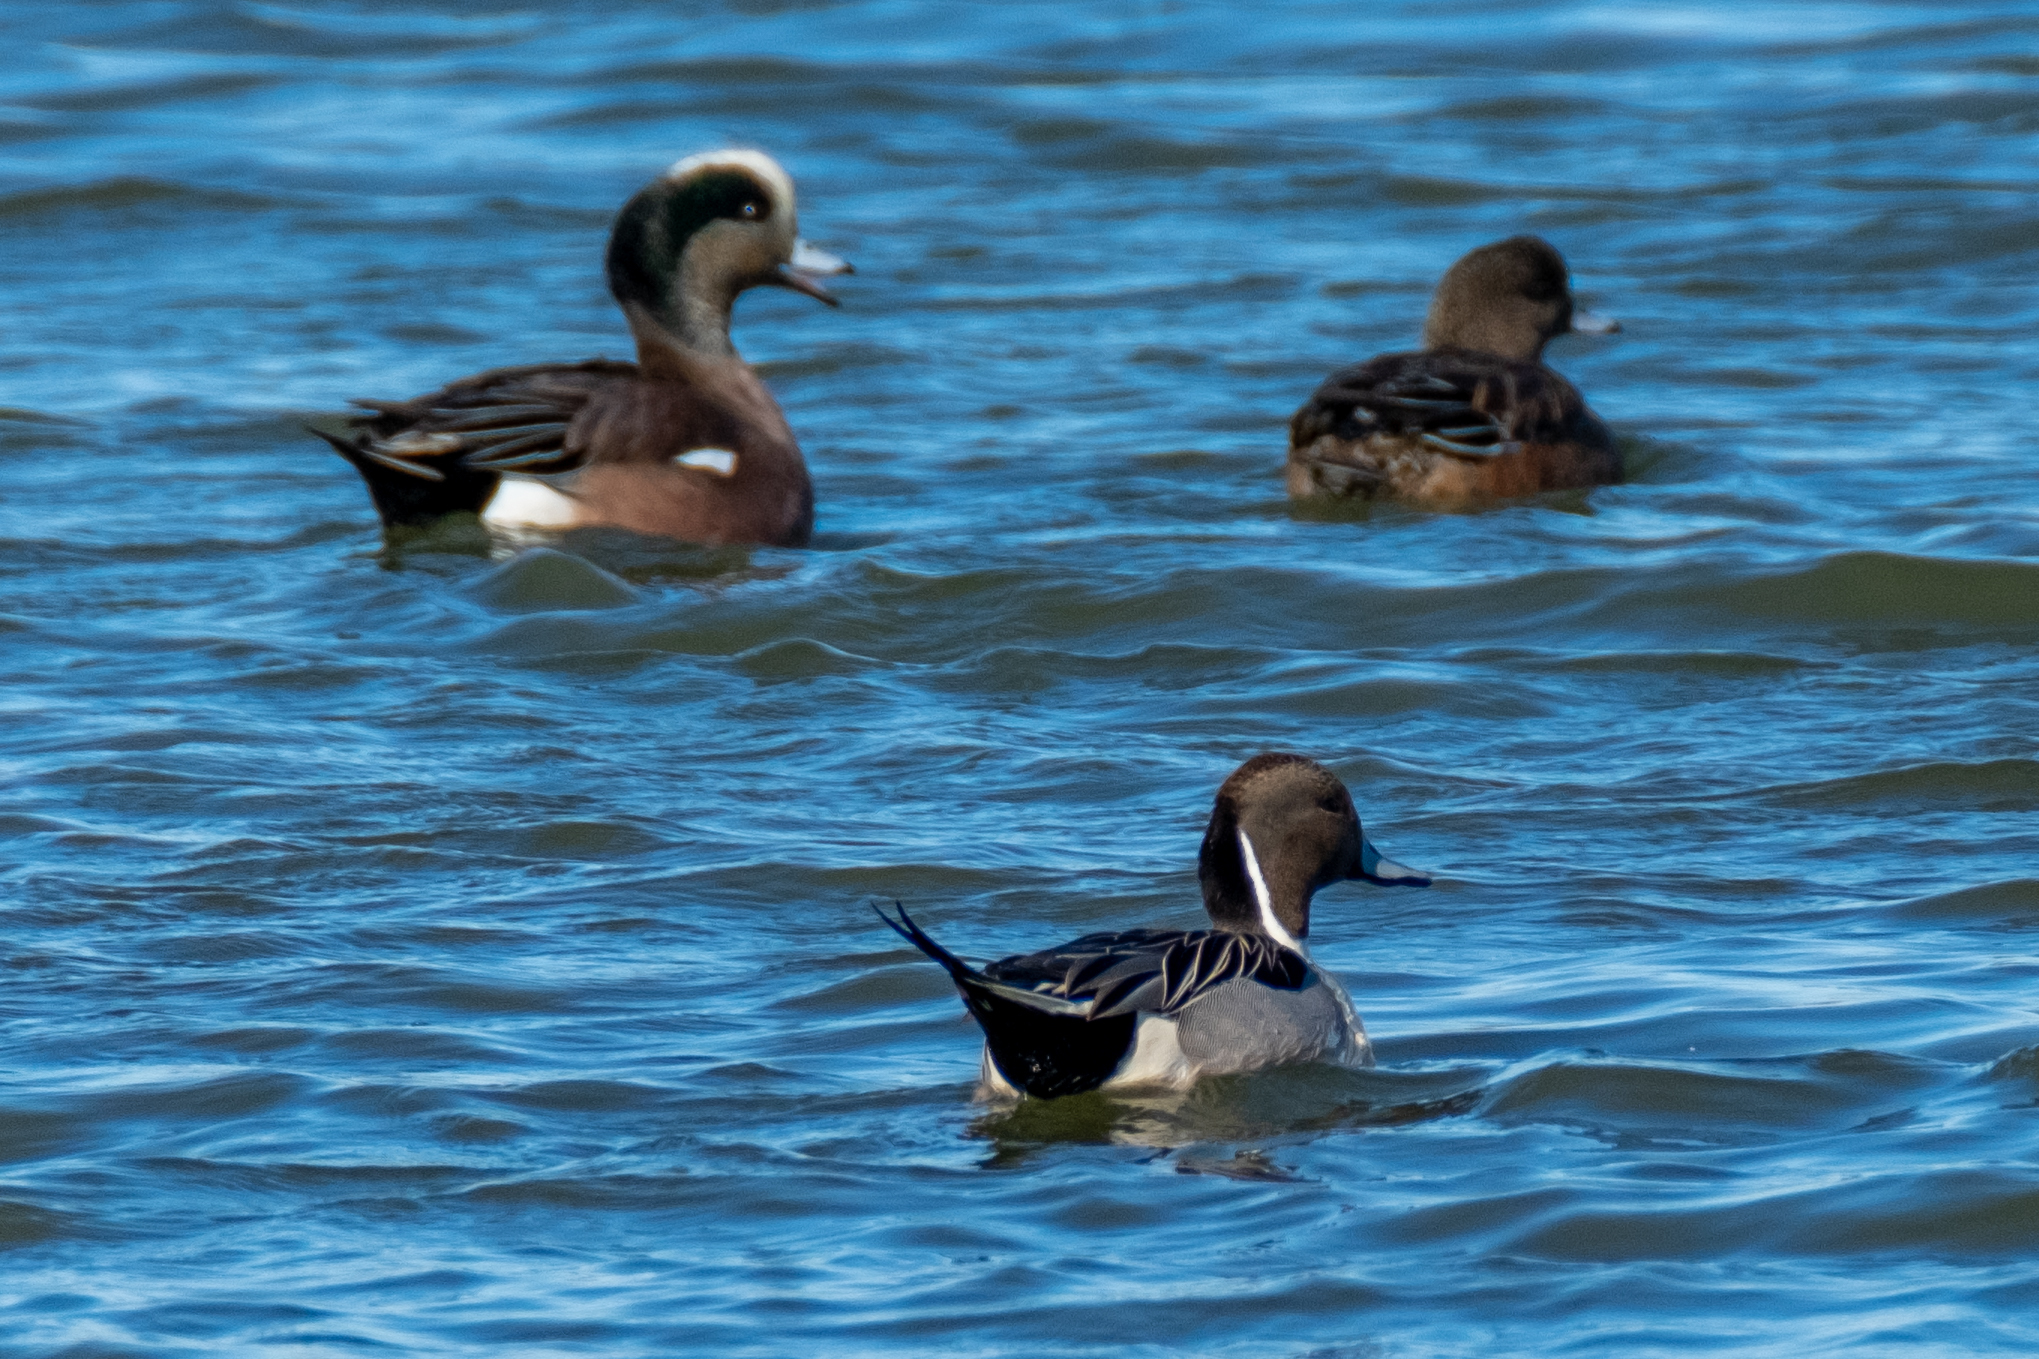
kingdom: Animalia
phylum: Chordata
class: Aves
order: Anseriformes
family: Anatidae
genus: Anas
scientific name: Anas acuta
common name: Northern pintail
